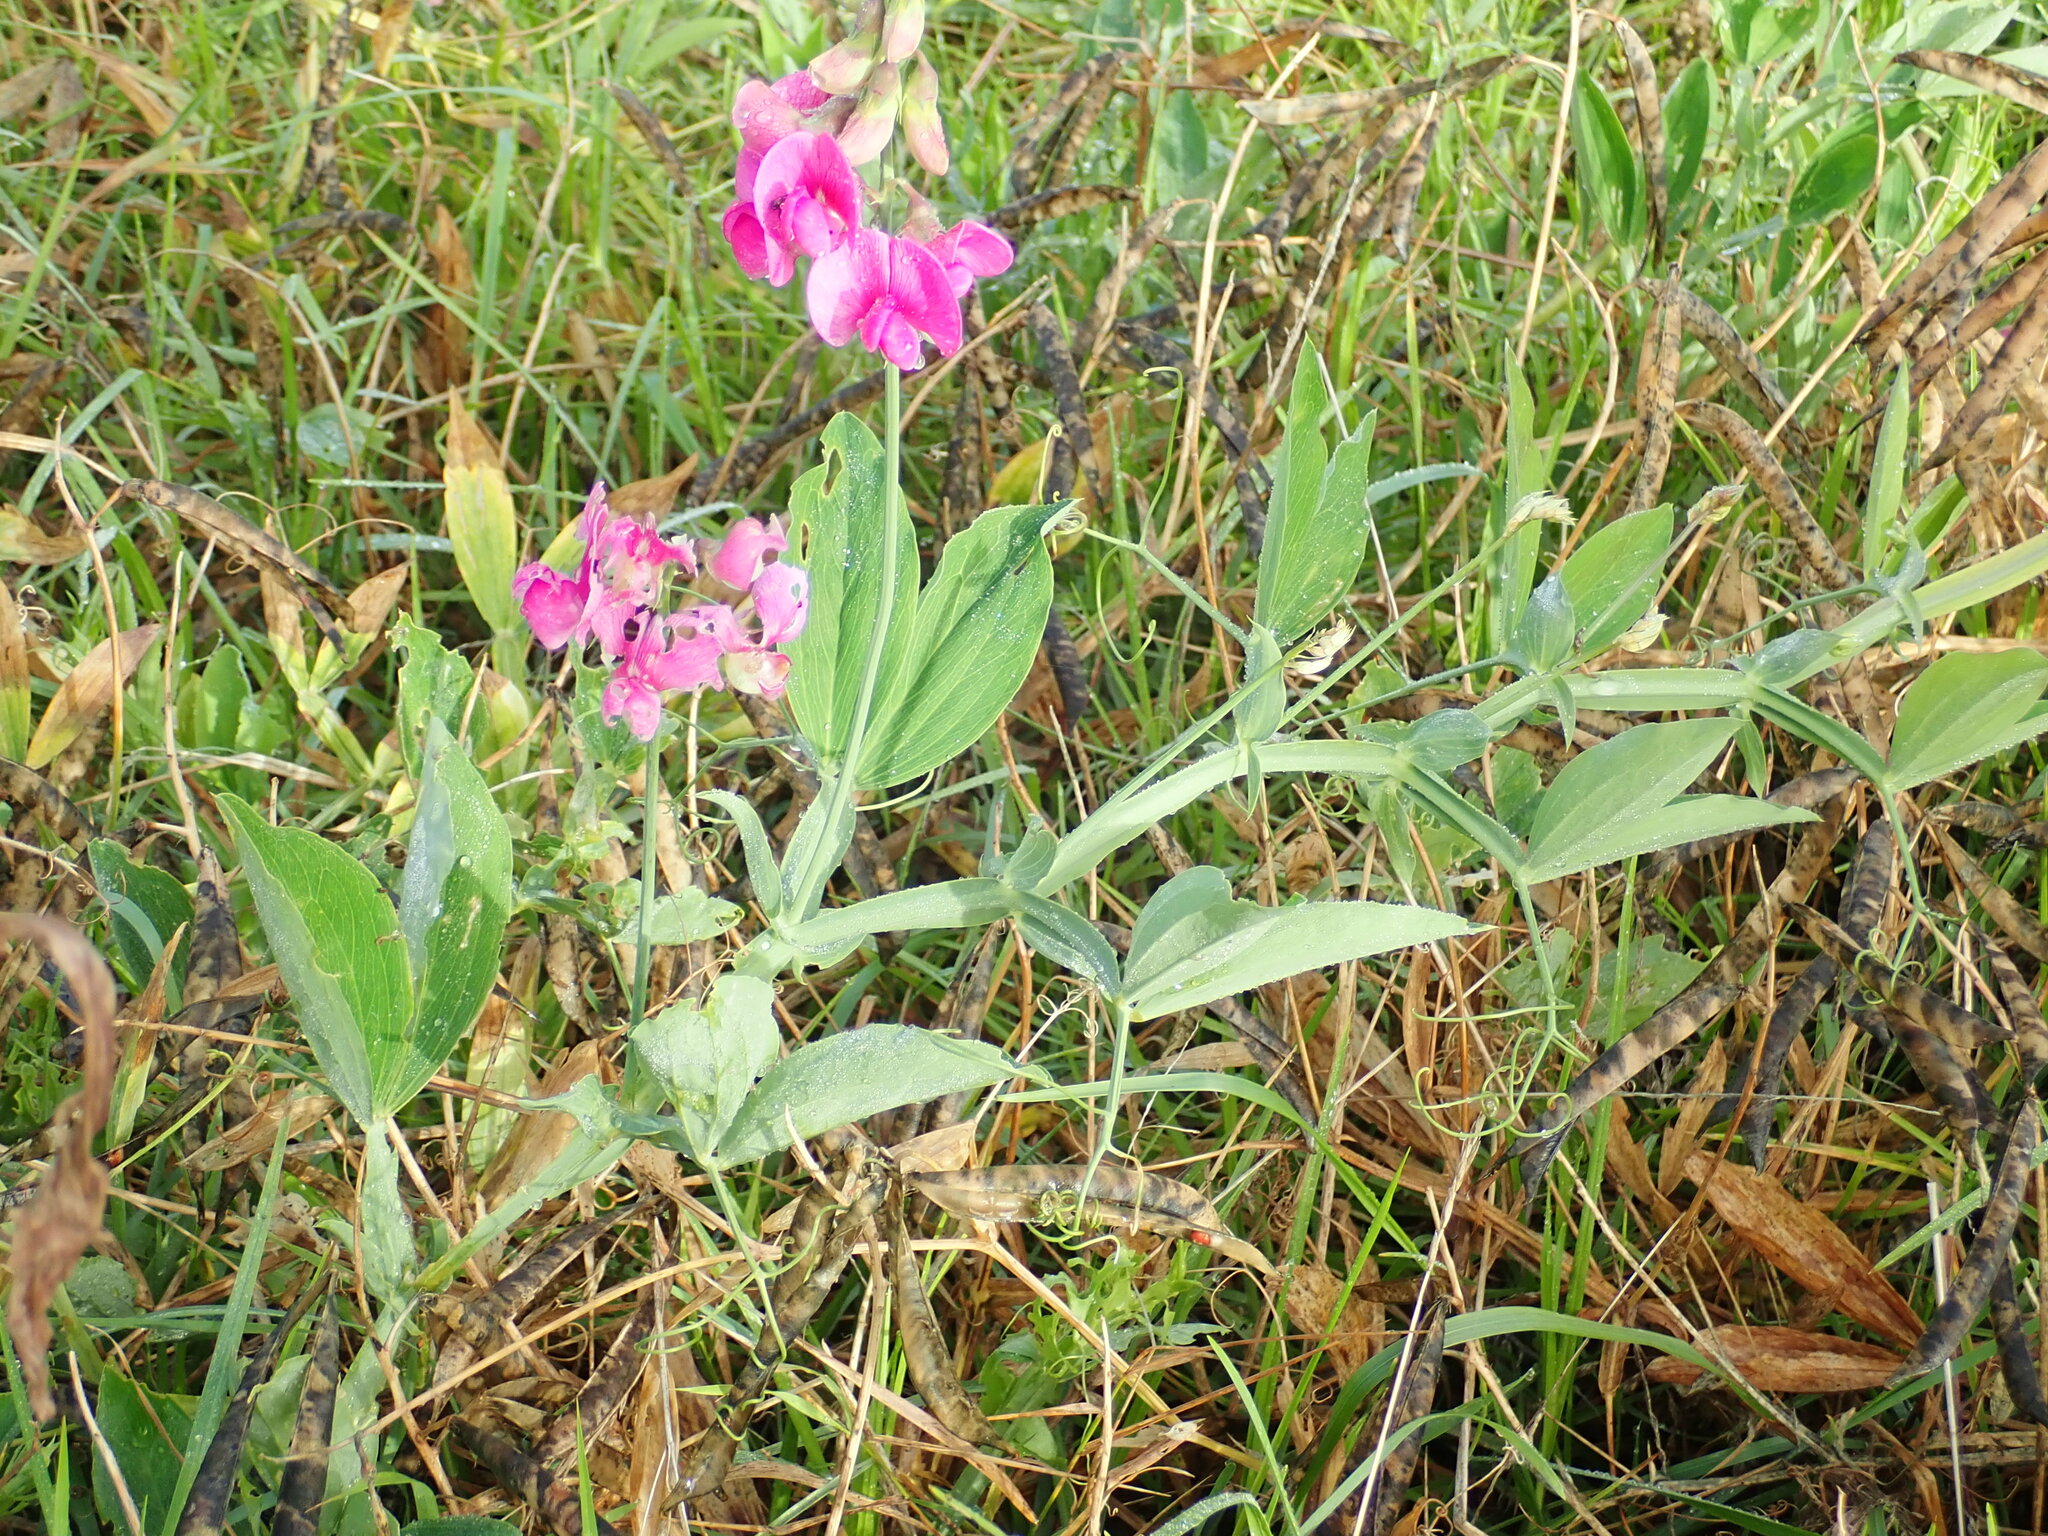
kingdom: Plantae
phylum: Tracheophyta
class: Magnoliopsida
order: Fabales
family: Fabaceae
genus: Lathyrus
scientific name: Lathyrus latifolius
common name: Perennial pea
